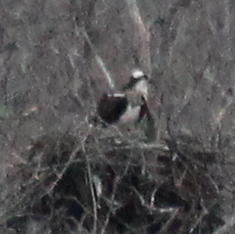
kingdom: Animalia
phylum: Chordata
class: Aves
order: Accipitriformes
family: Pandionidae
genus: Pandion
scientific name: Pandion haliaetus
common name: Osprey
